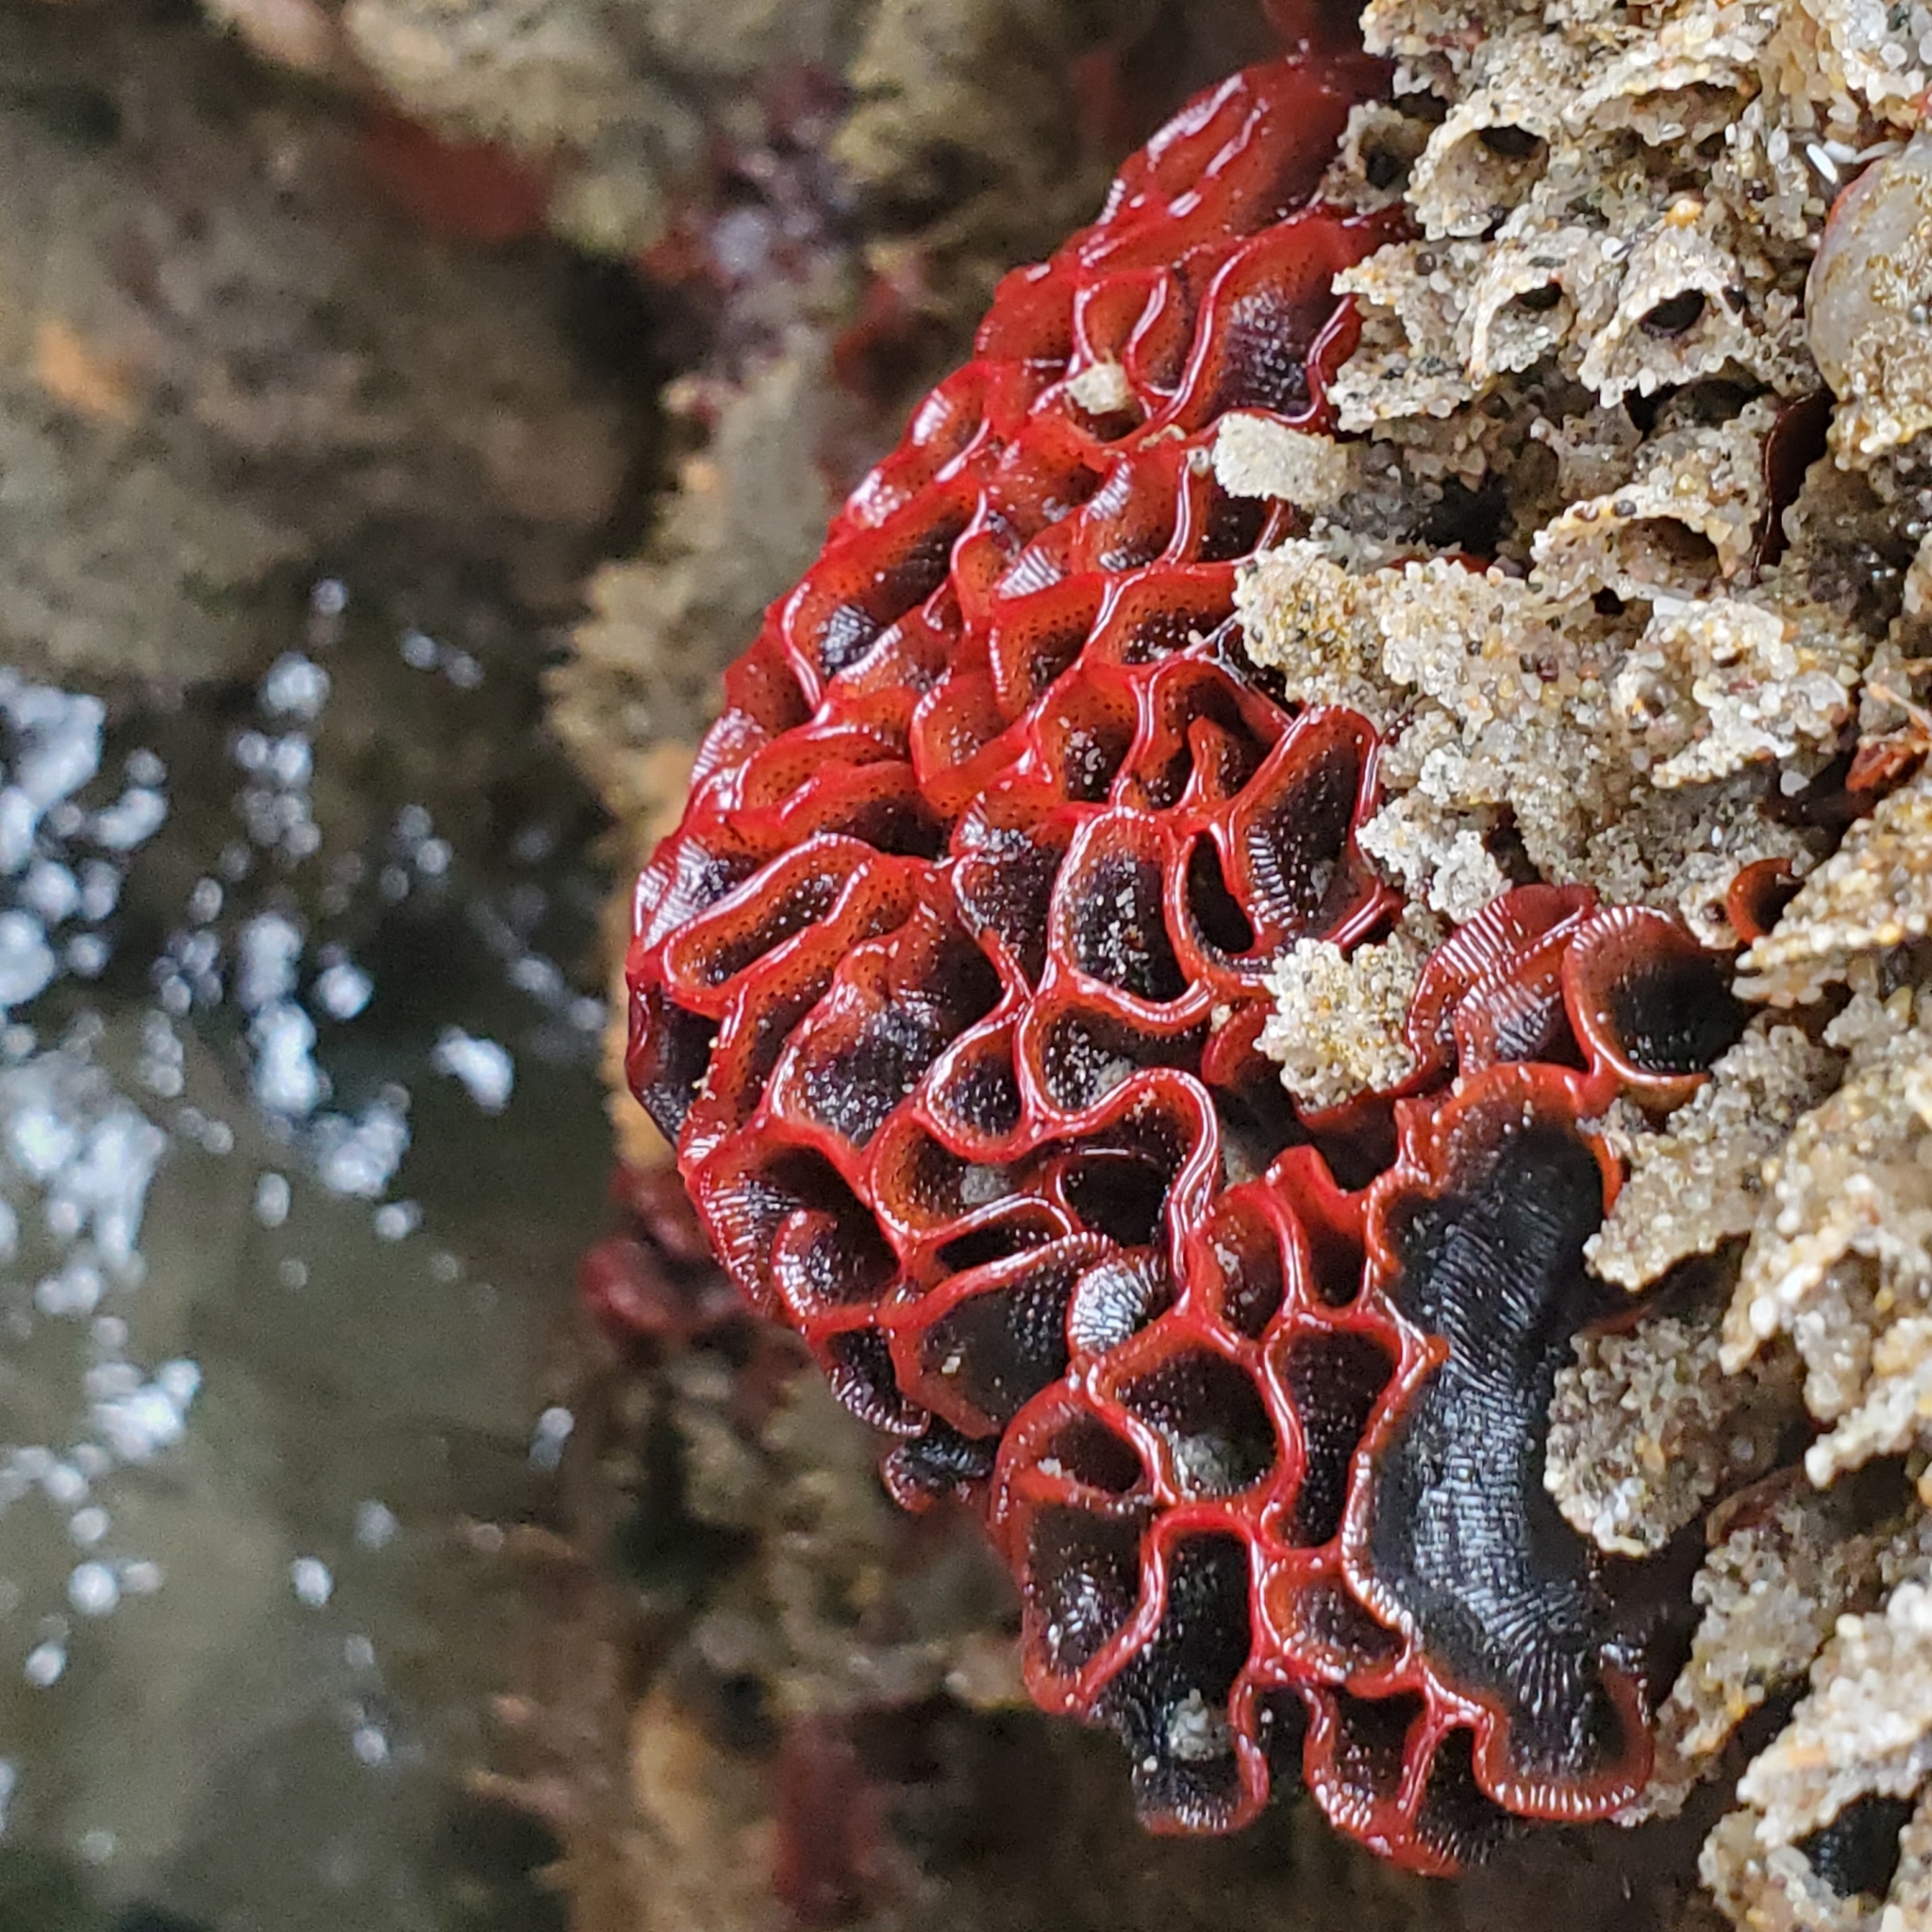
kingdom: Animalia
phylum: Bryozoa
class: Gymnolaemata
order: Cheilostomatida
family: Watersiporidae
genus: Watersipora
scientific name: Watersipora subtorquata
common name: Bryozoan
